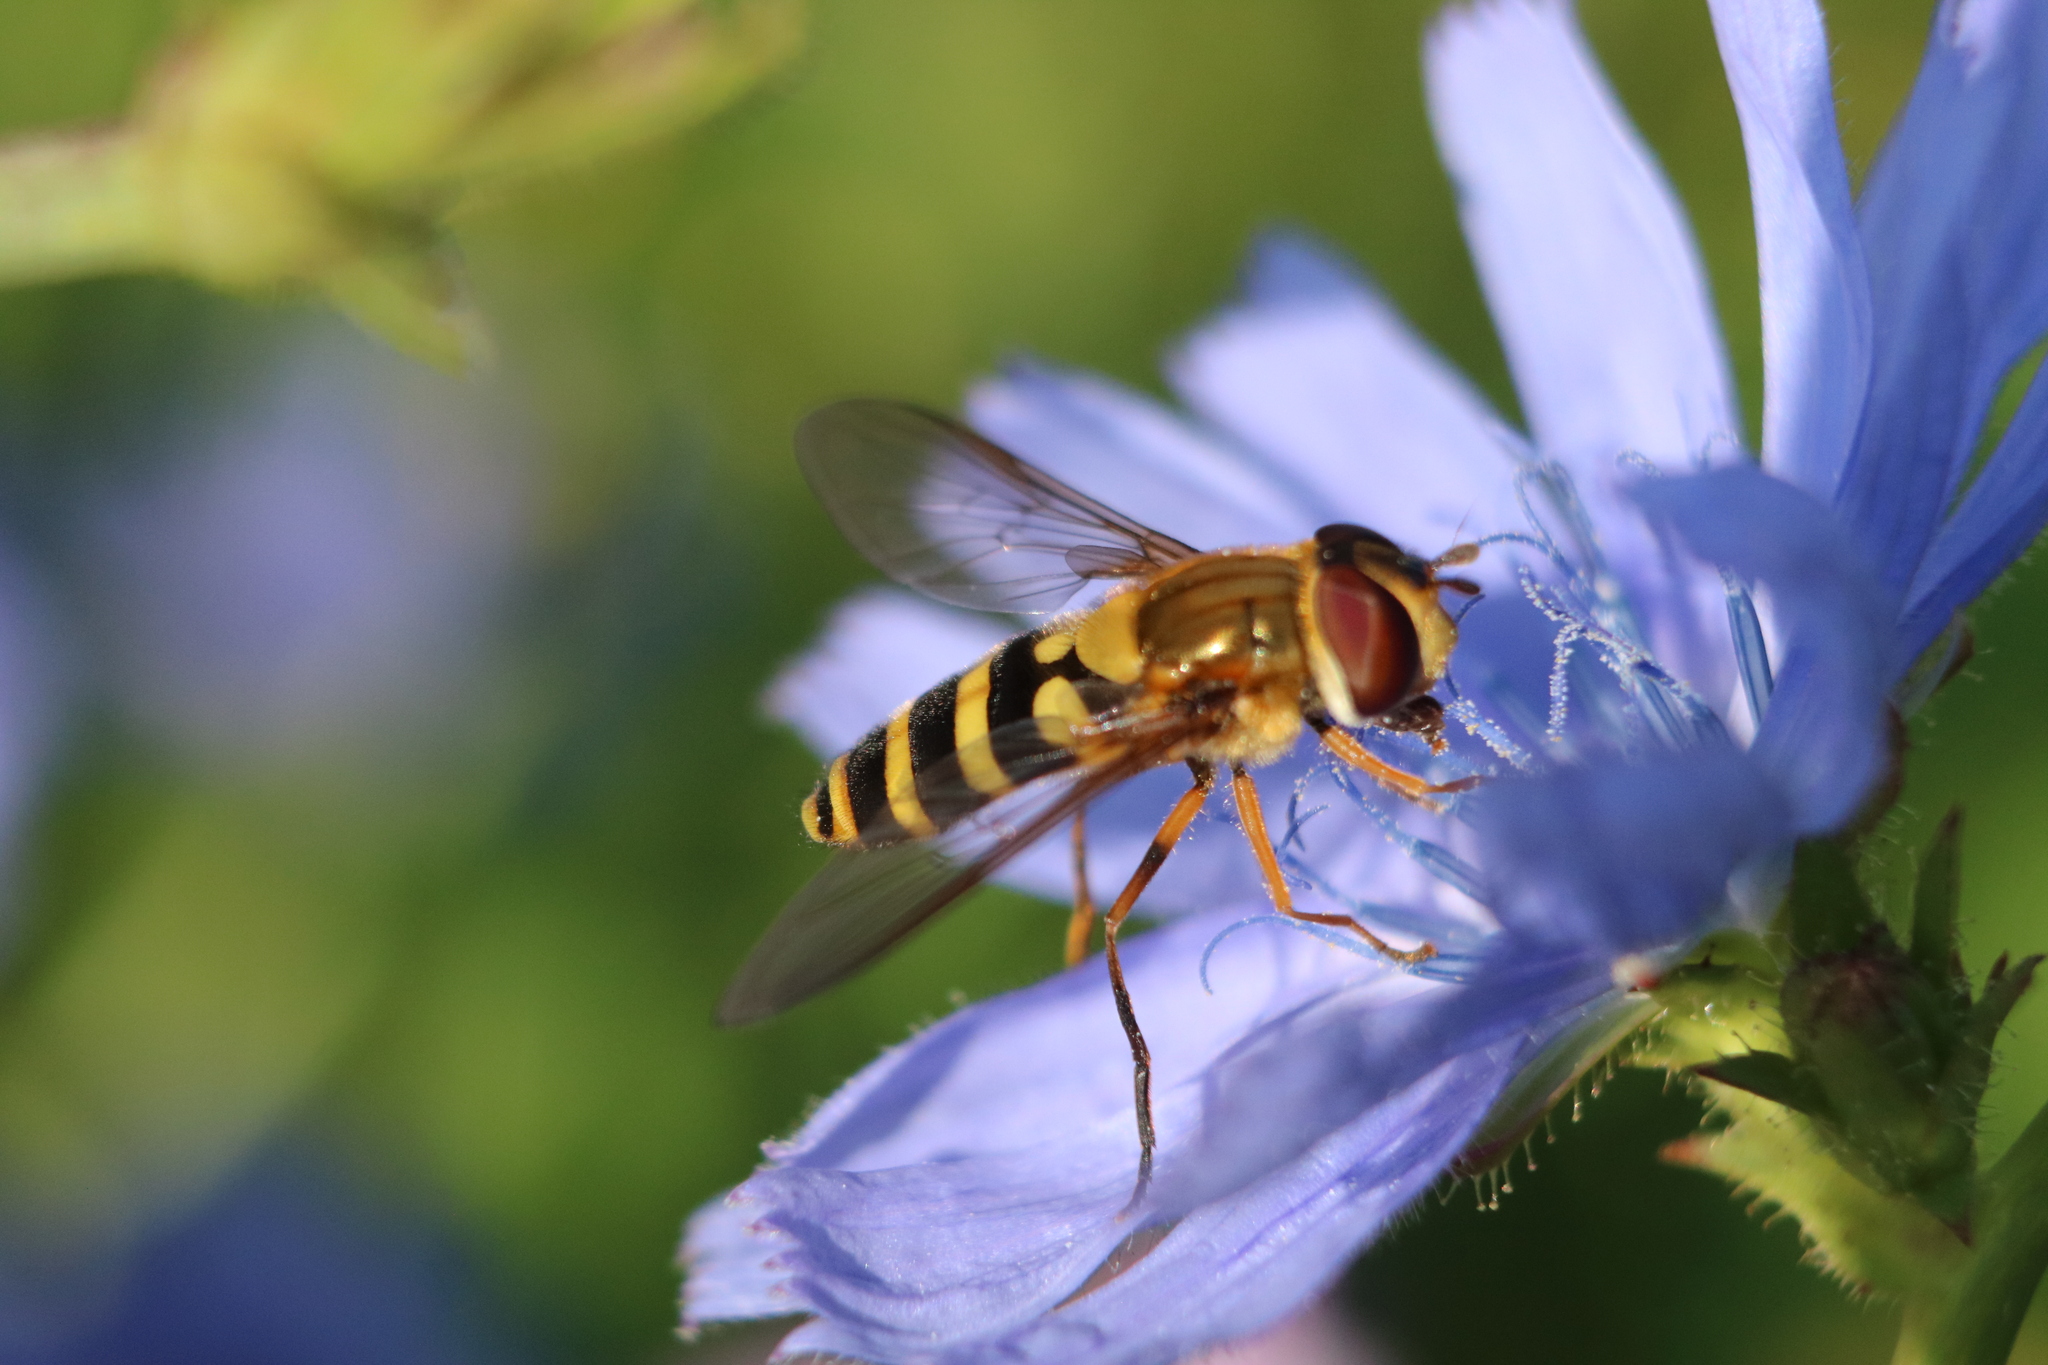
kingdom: Animalia
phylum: Arthropoda
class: Insecta
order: Diptera
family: Syrphidae
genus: Syrphus
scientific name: Syrphus rectus
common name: Yellow-legged flower fly
